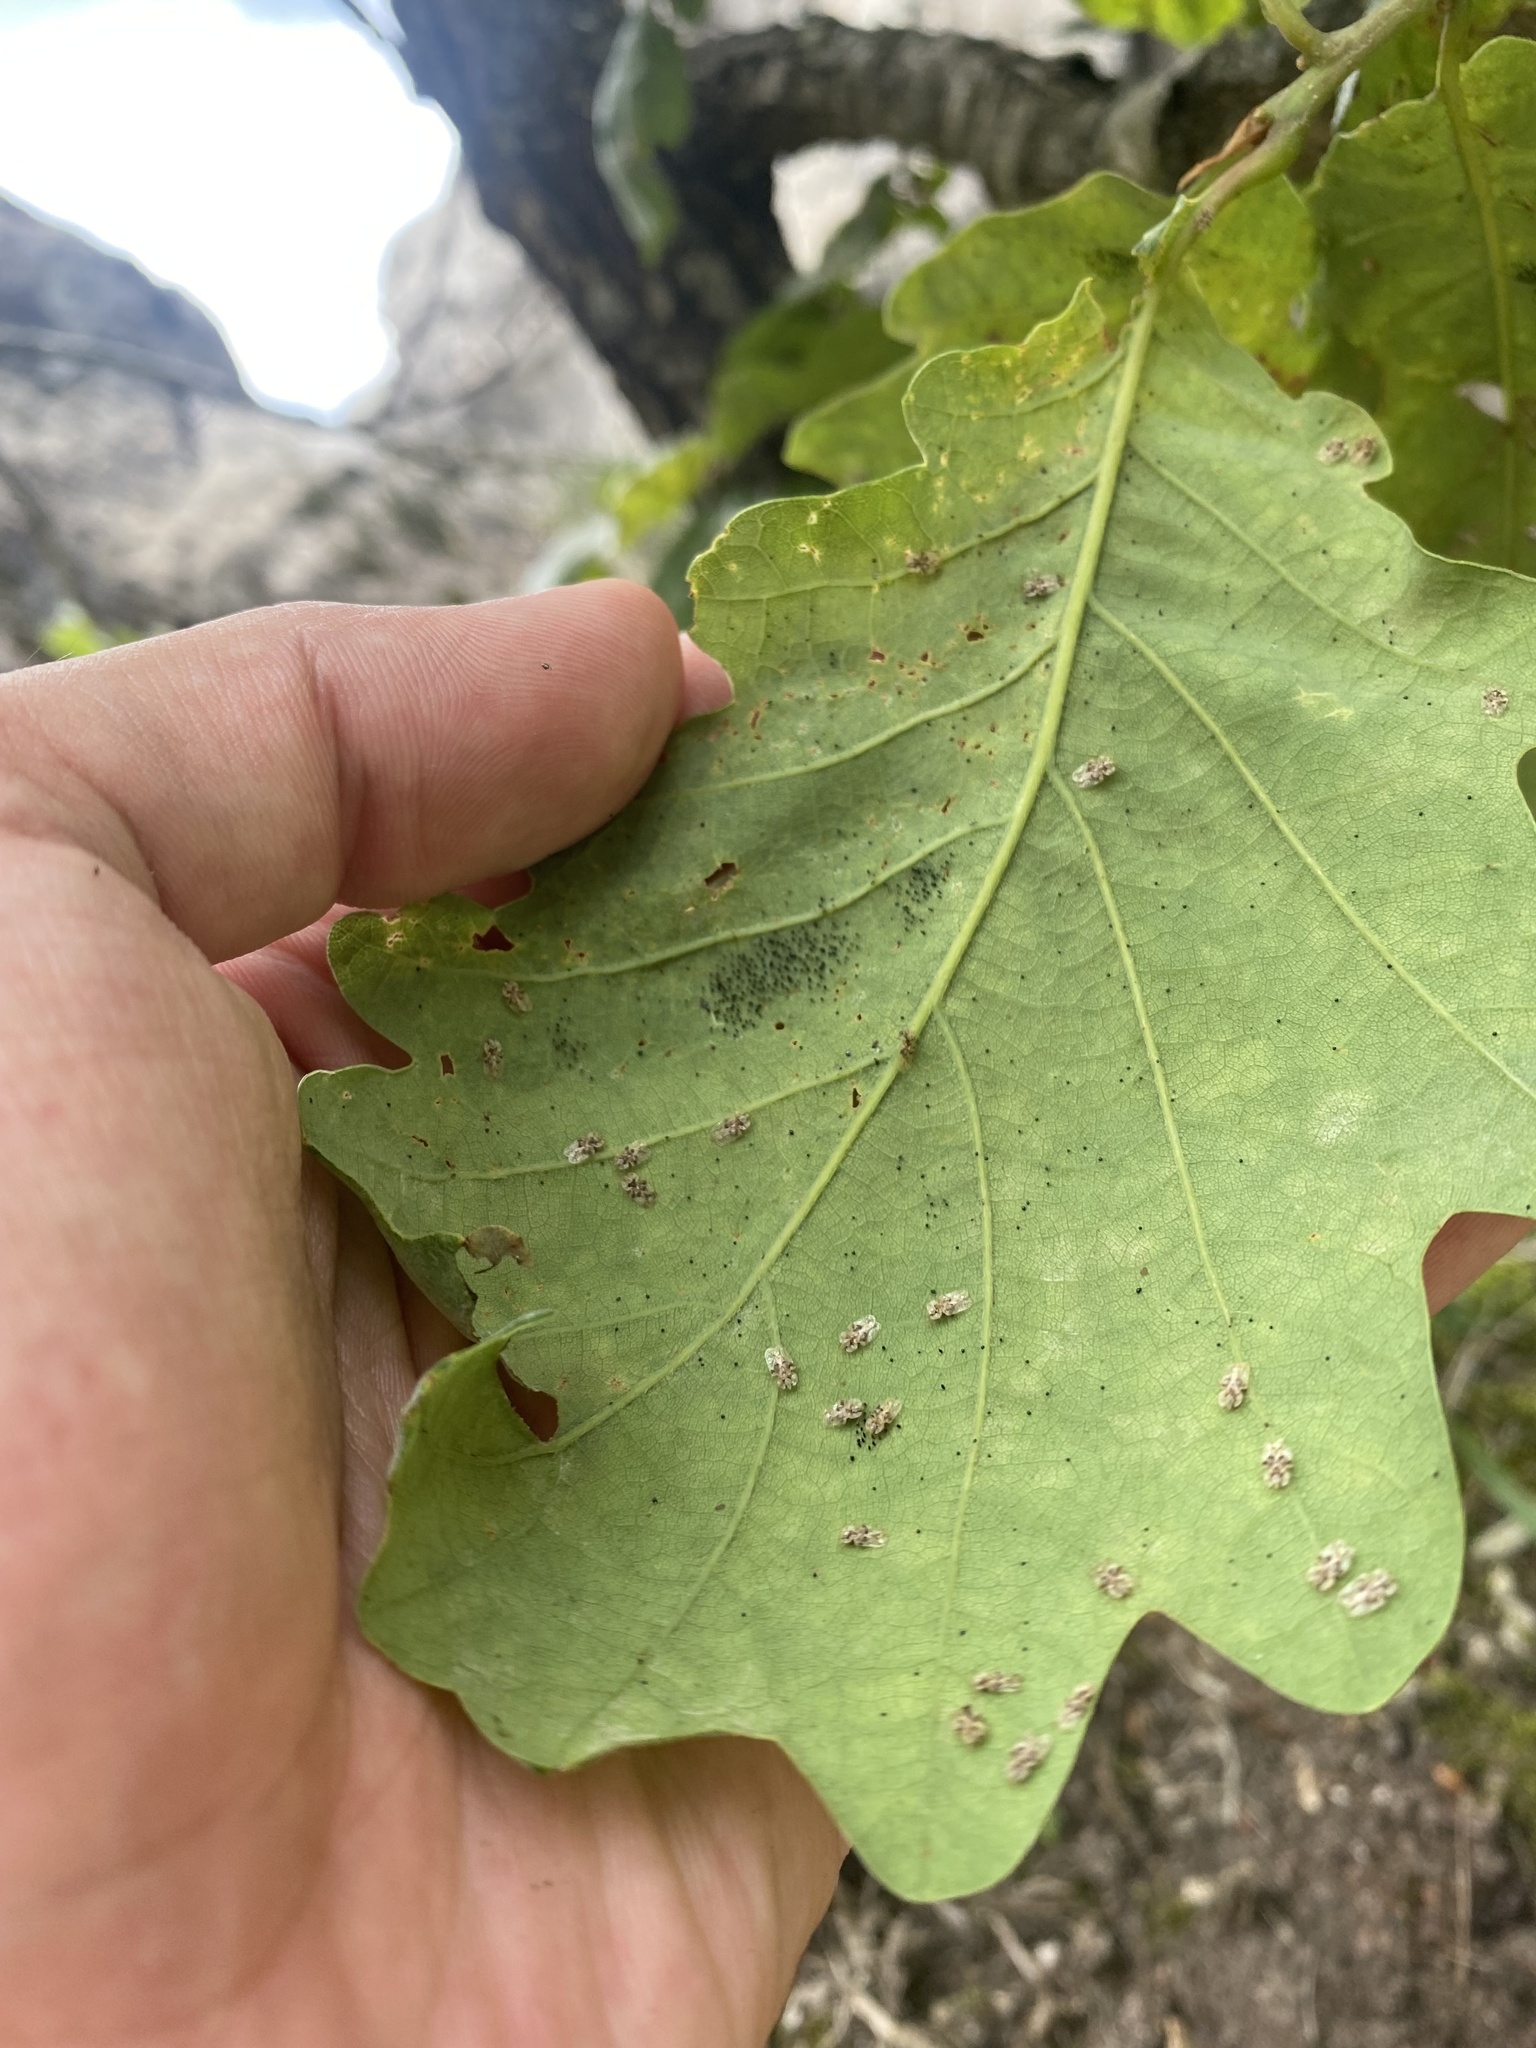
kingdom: Animalia
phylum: Arthropoda
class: Insecta
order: Hemiptera
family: Tingidae
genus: Corythucha
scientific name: Corythucha arcuata
